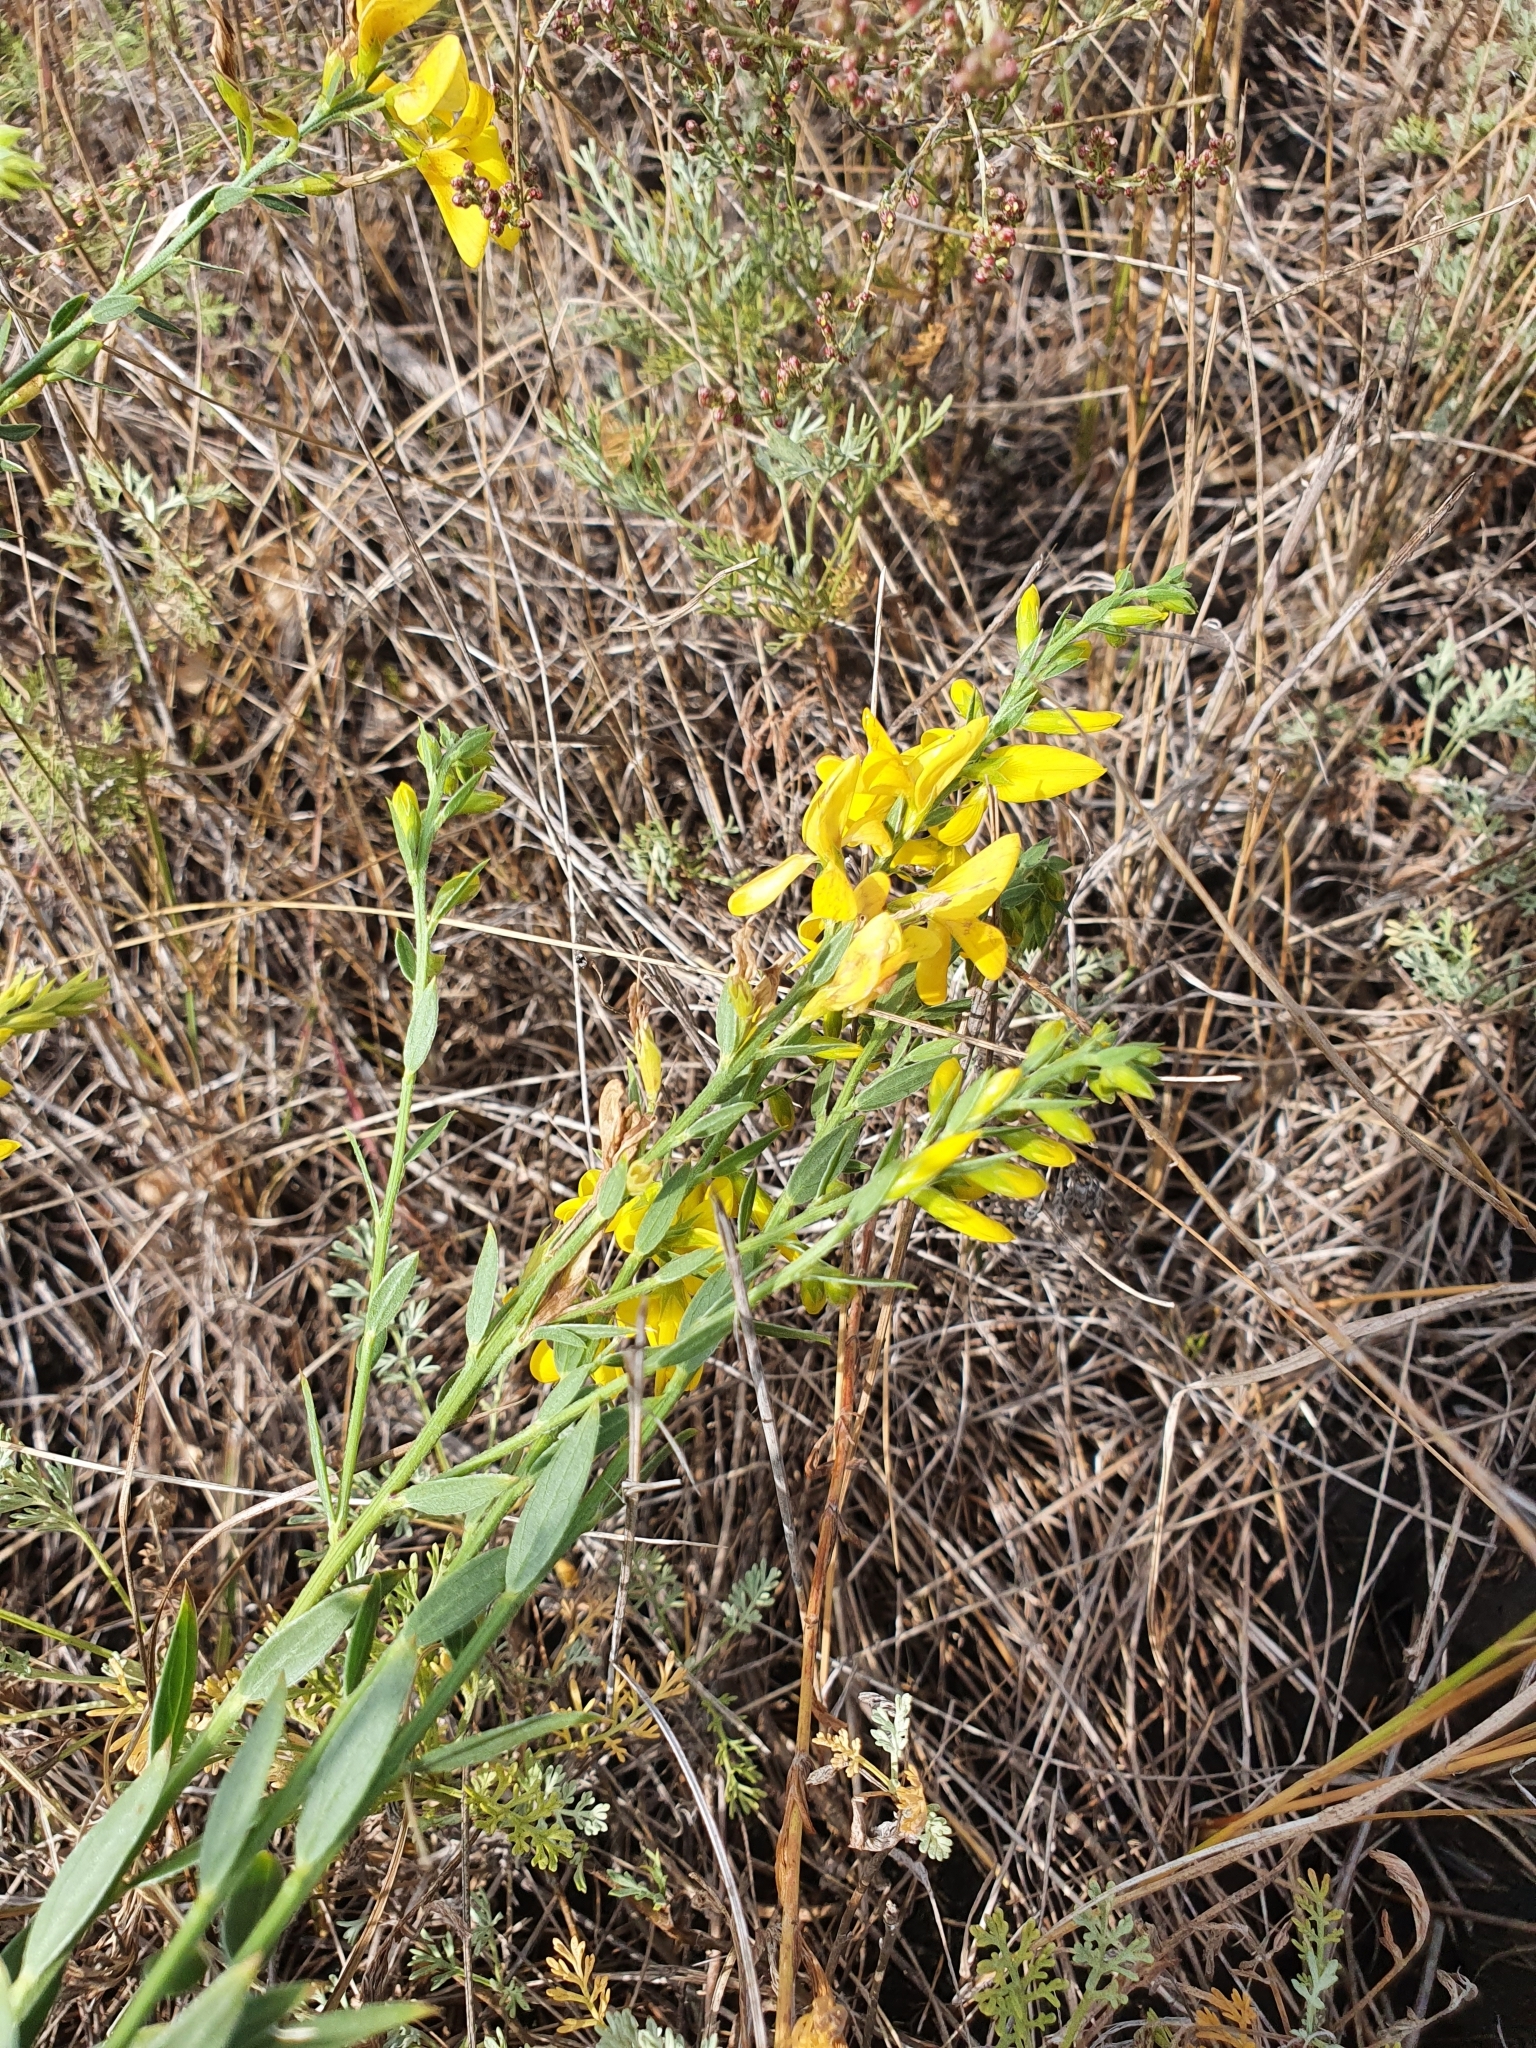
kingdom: Plantae
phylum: Tracheophyta
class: Magnoliopsida
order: Fabales
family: Fabaceae
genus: Genista
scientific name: Genista tinctoria
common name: Dyer's greenweed
